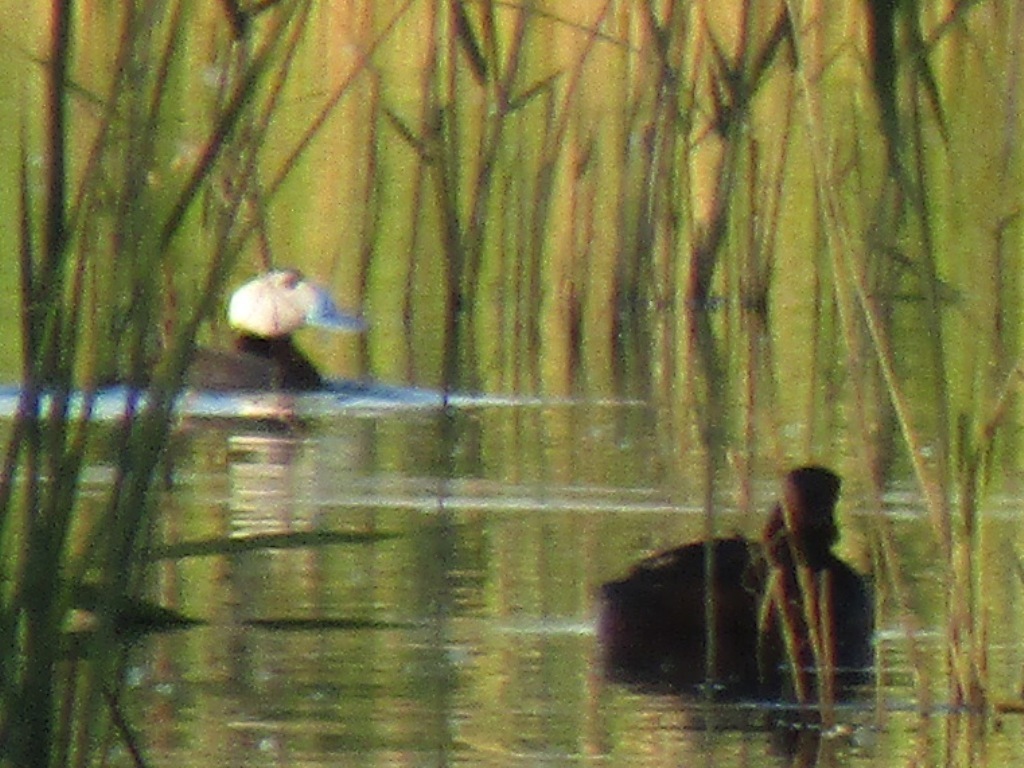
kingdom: Animalia
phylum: Chordata
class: Aves
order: Anseriformes
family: Anatidae
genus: Oxyura
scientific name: Oxyura leucocephala
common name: White-headed duck
